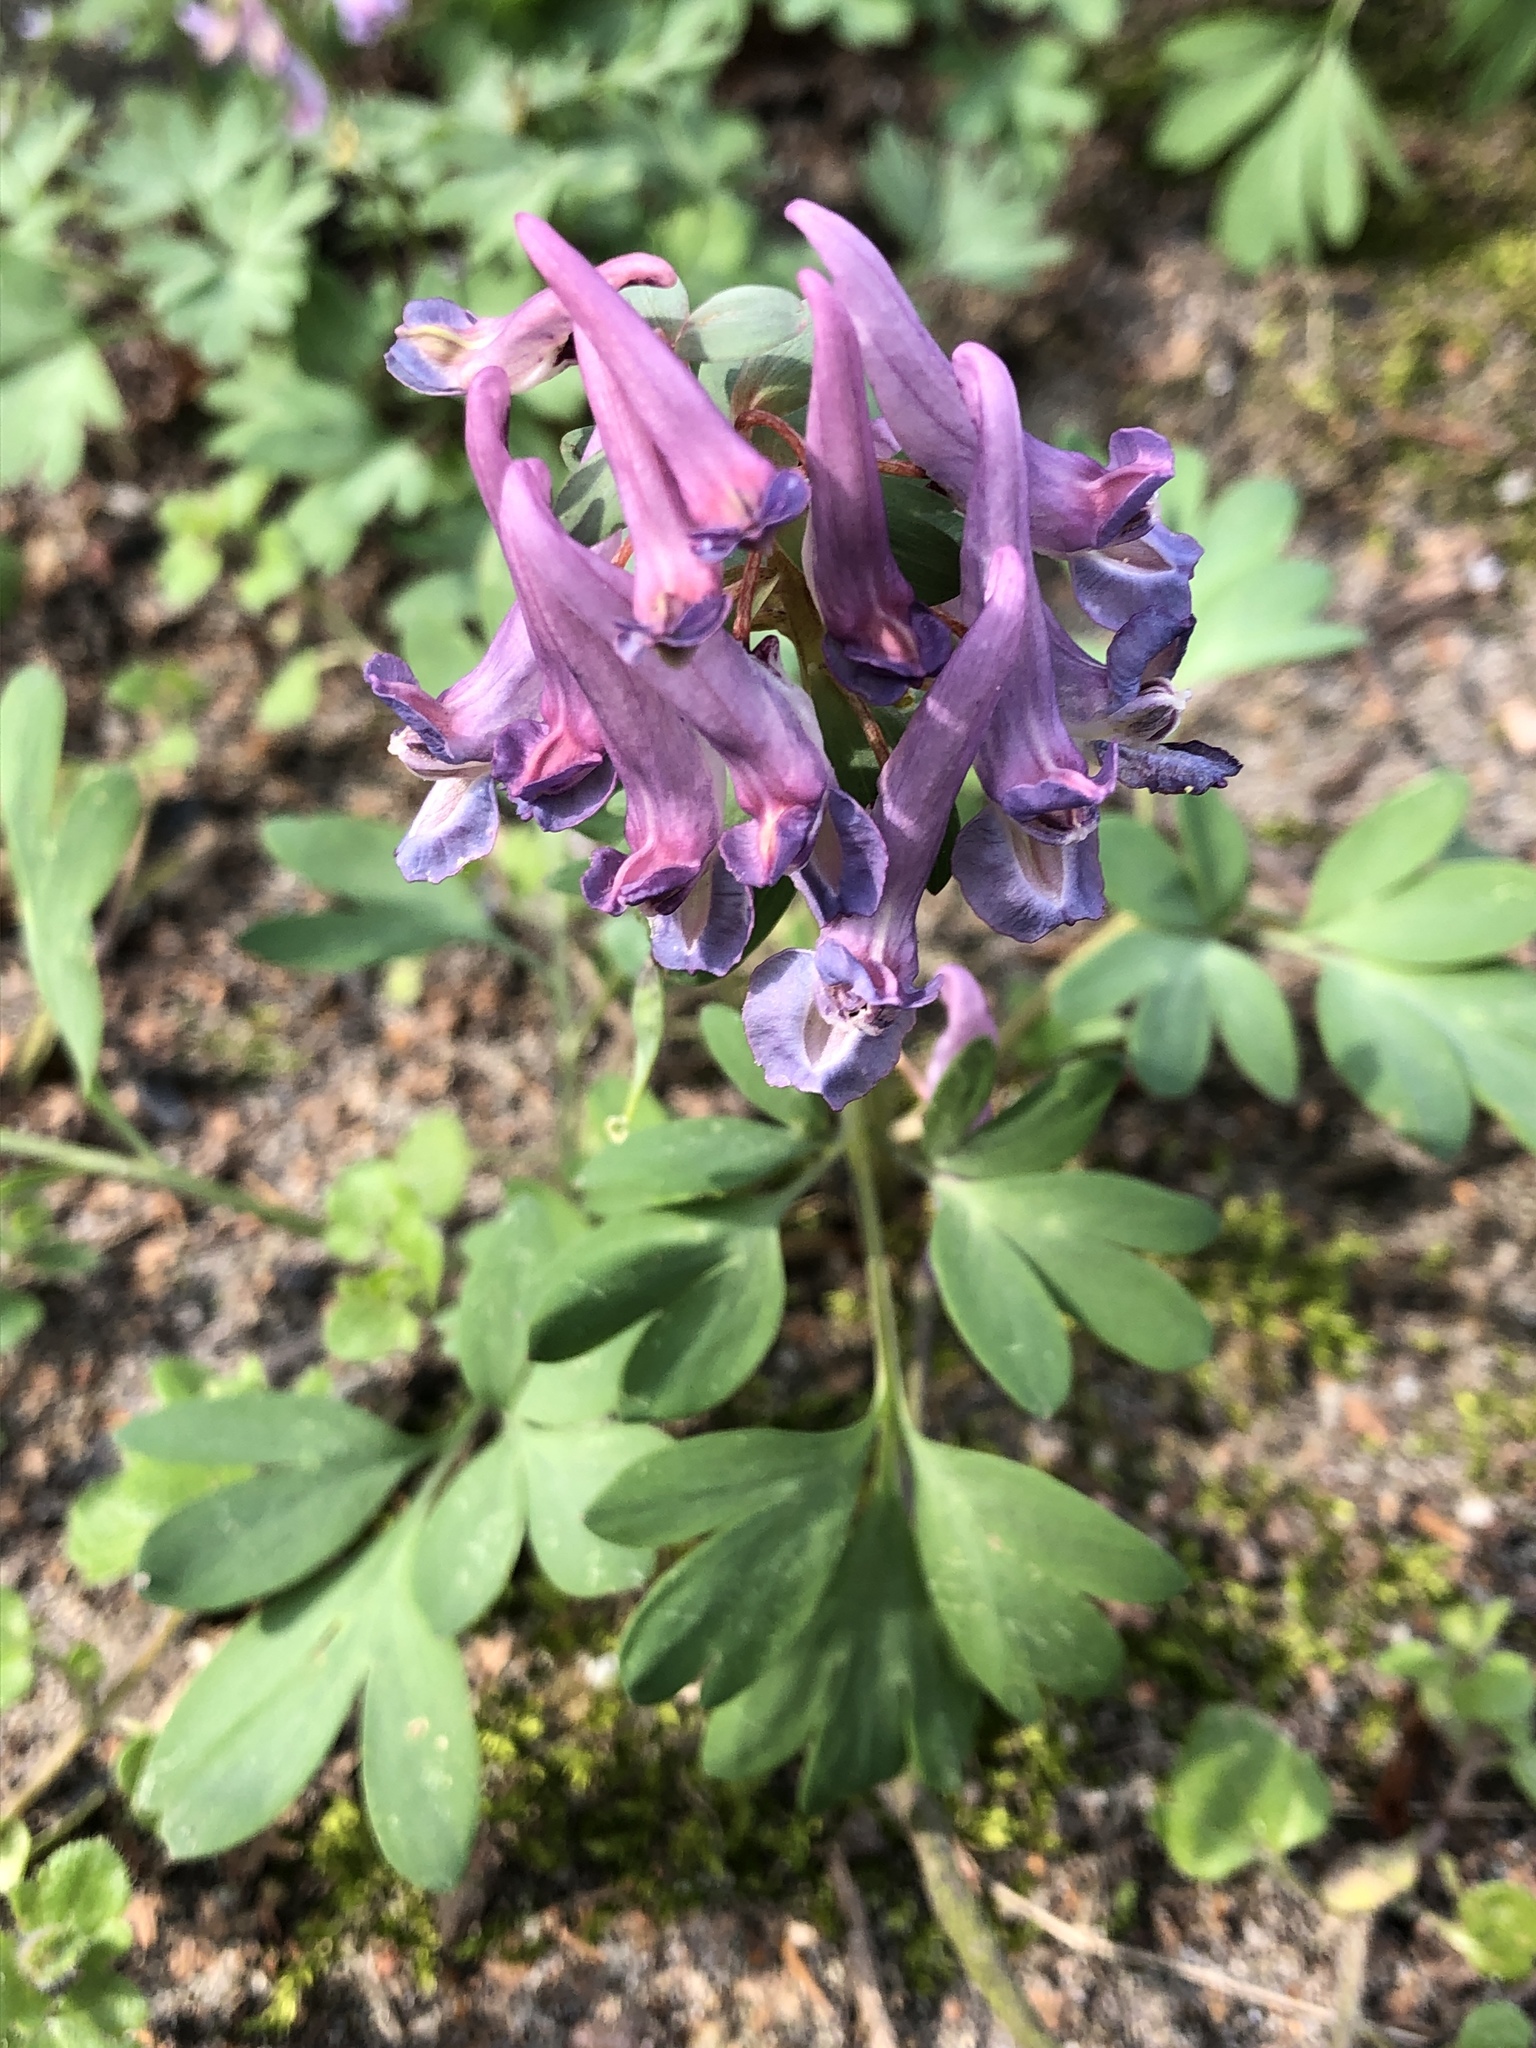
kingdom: Plantae
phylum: Tracheophyta
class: Magnoliopsida
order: Ranunculales
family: Papaveraceae
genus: Corydalis
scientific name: Corydalis cava
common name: Hollowroot
